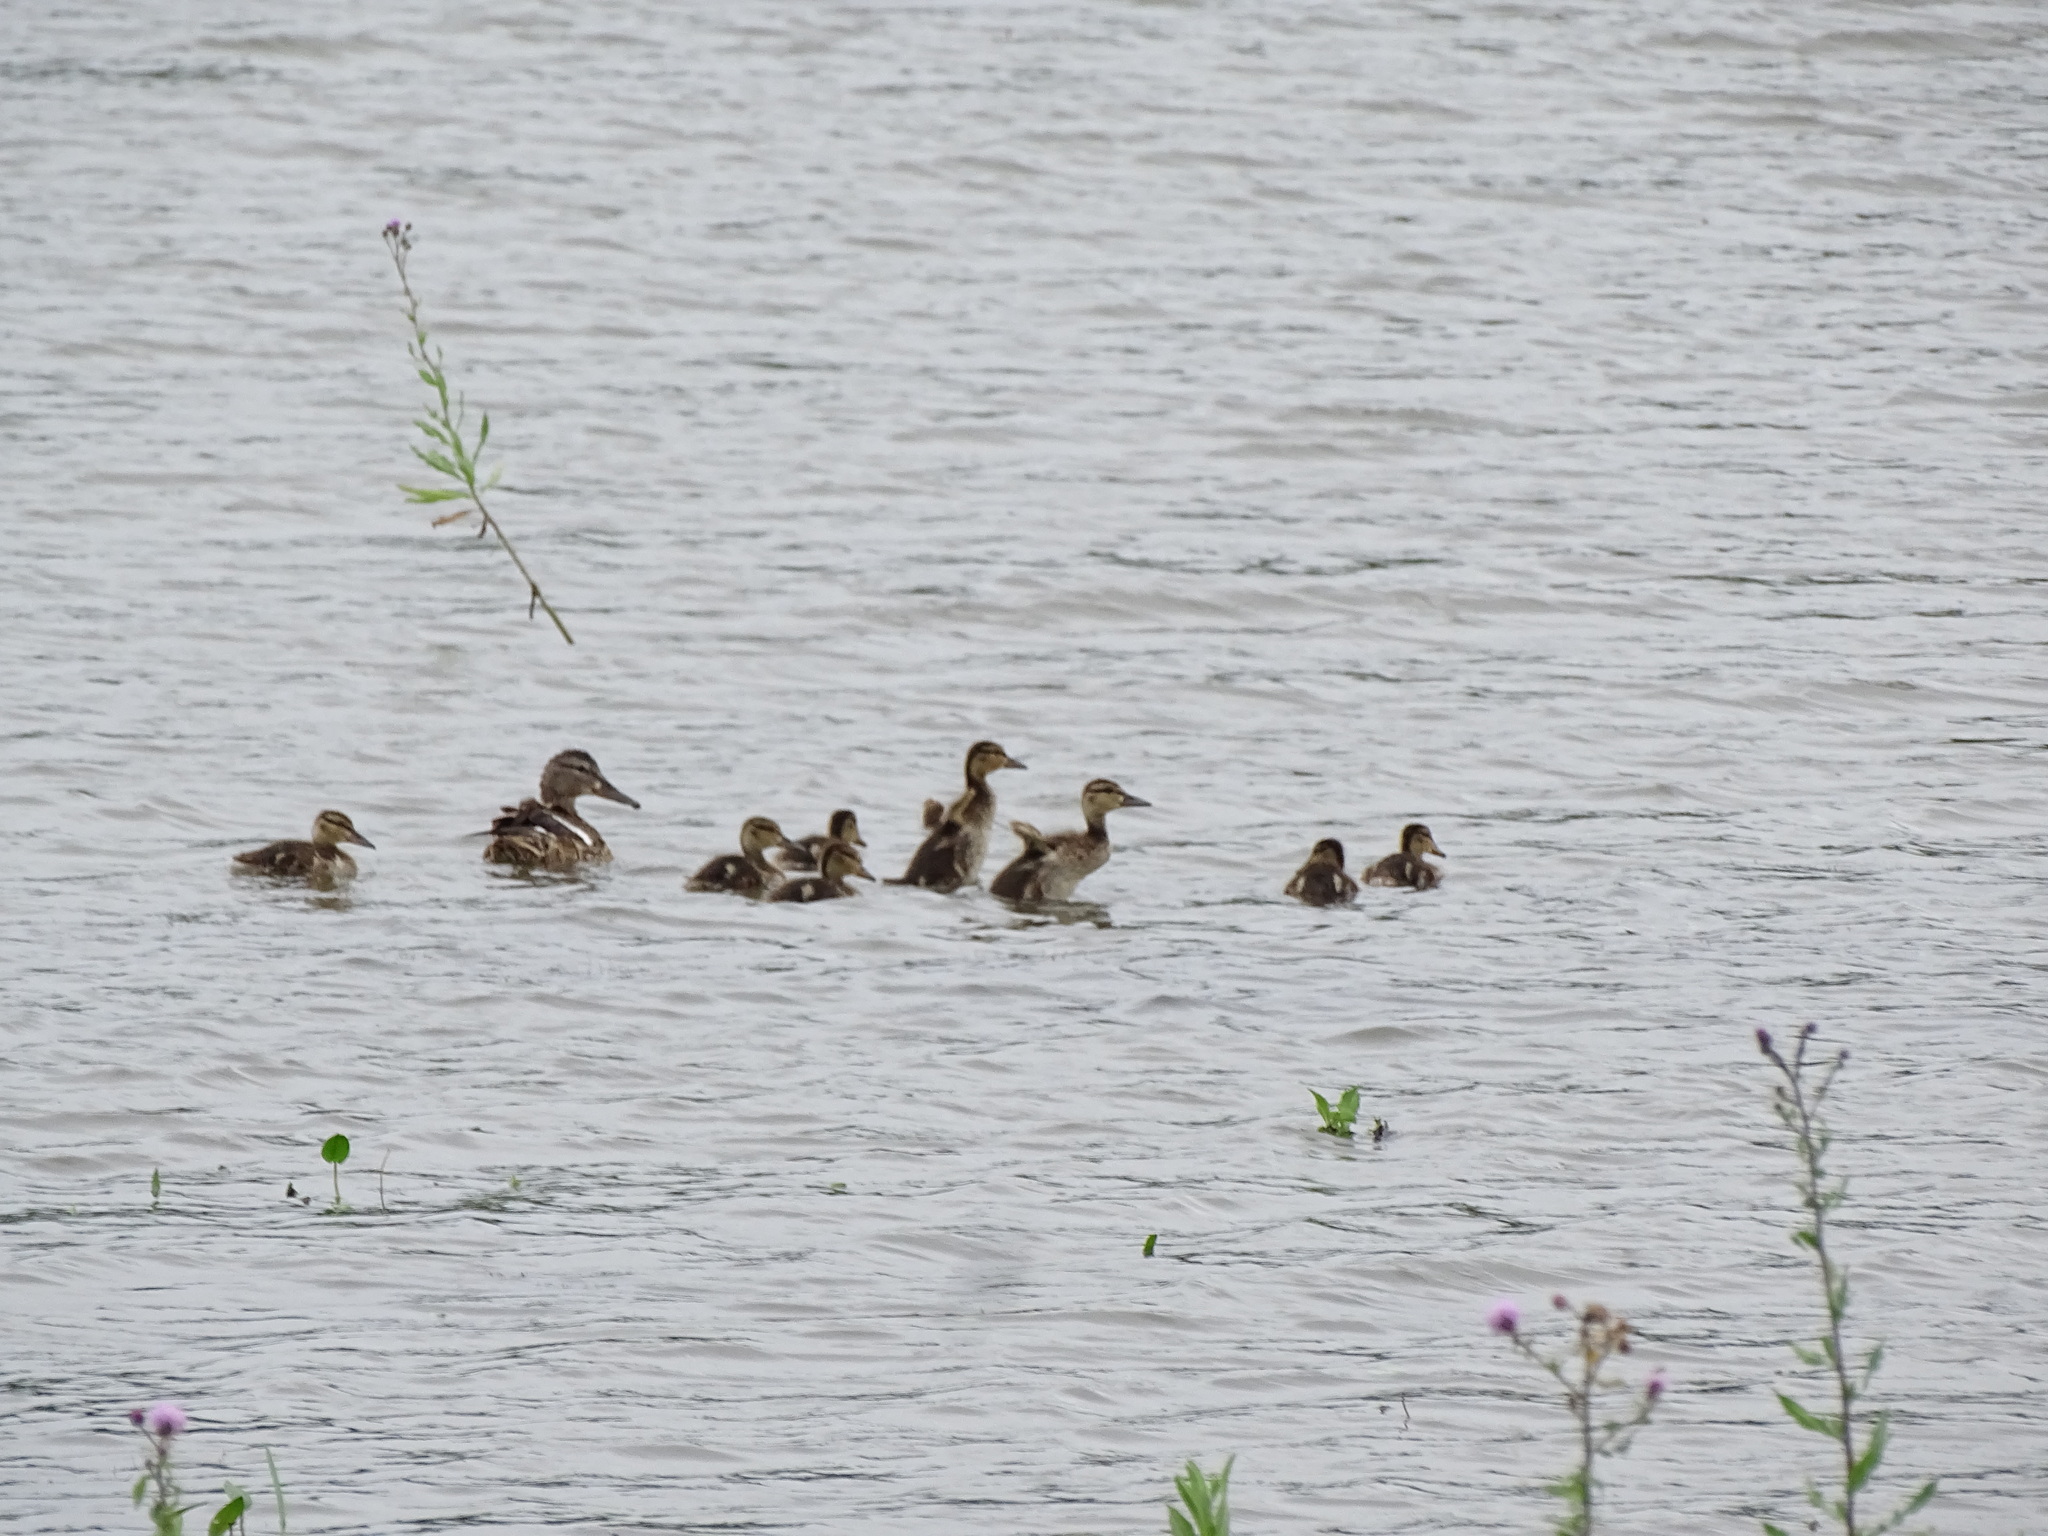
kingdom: Animalia
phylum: Chordata
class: Aves
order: Anseriformes
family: Anatidae
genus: Anas
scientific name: Anas platyrhynchos
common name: Mallard
